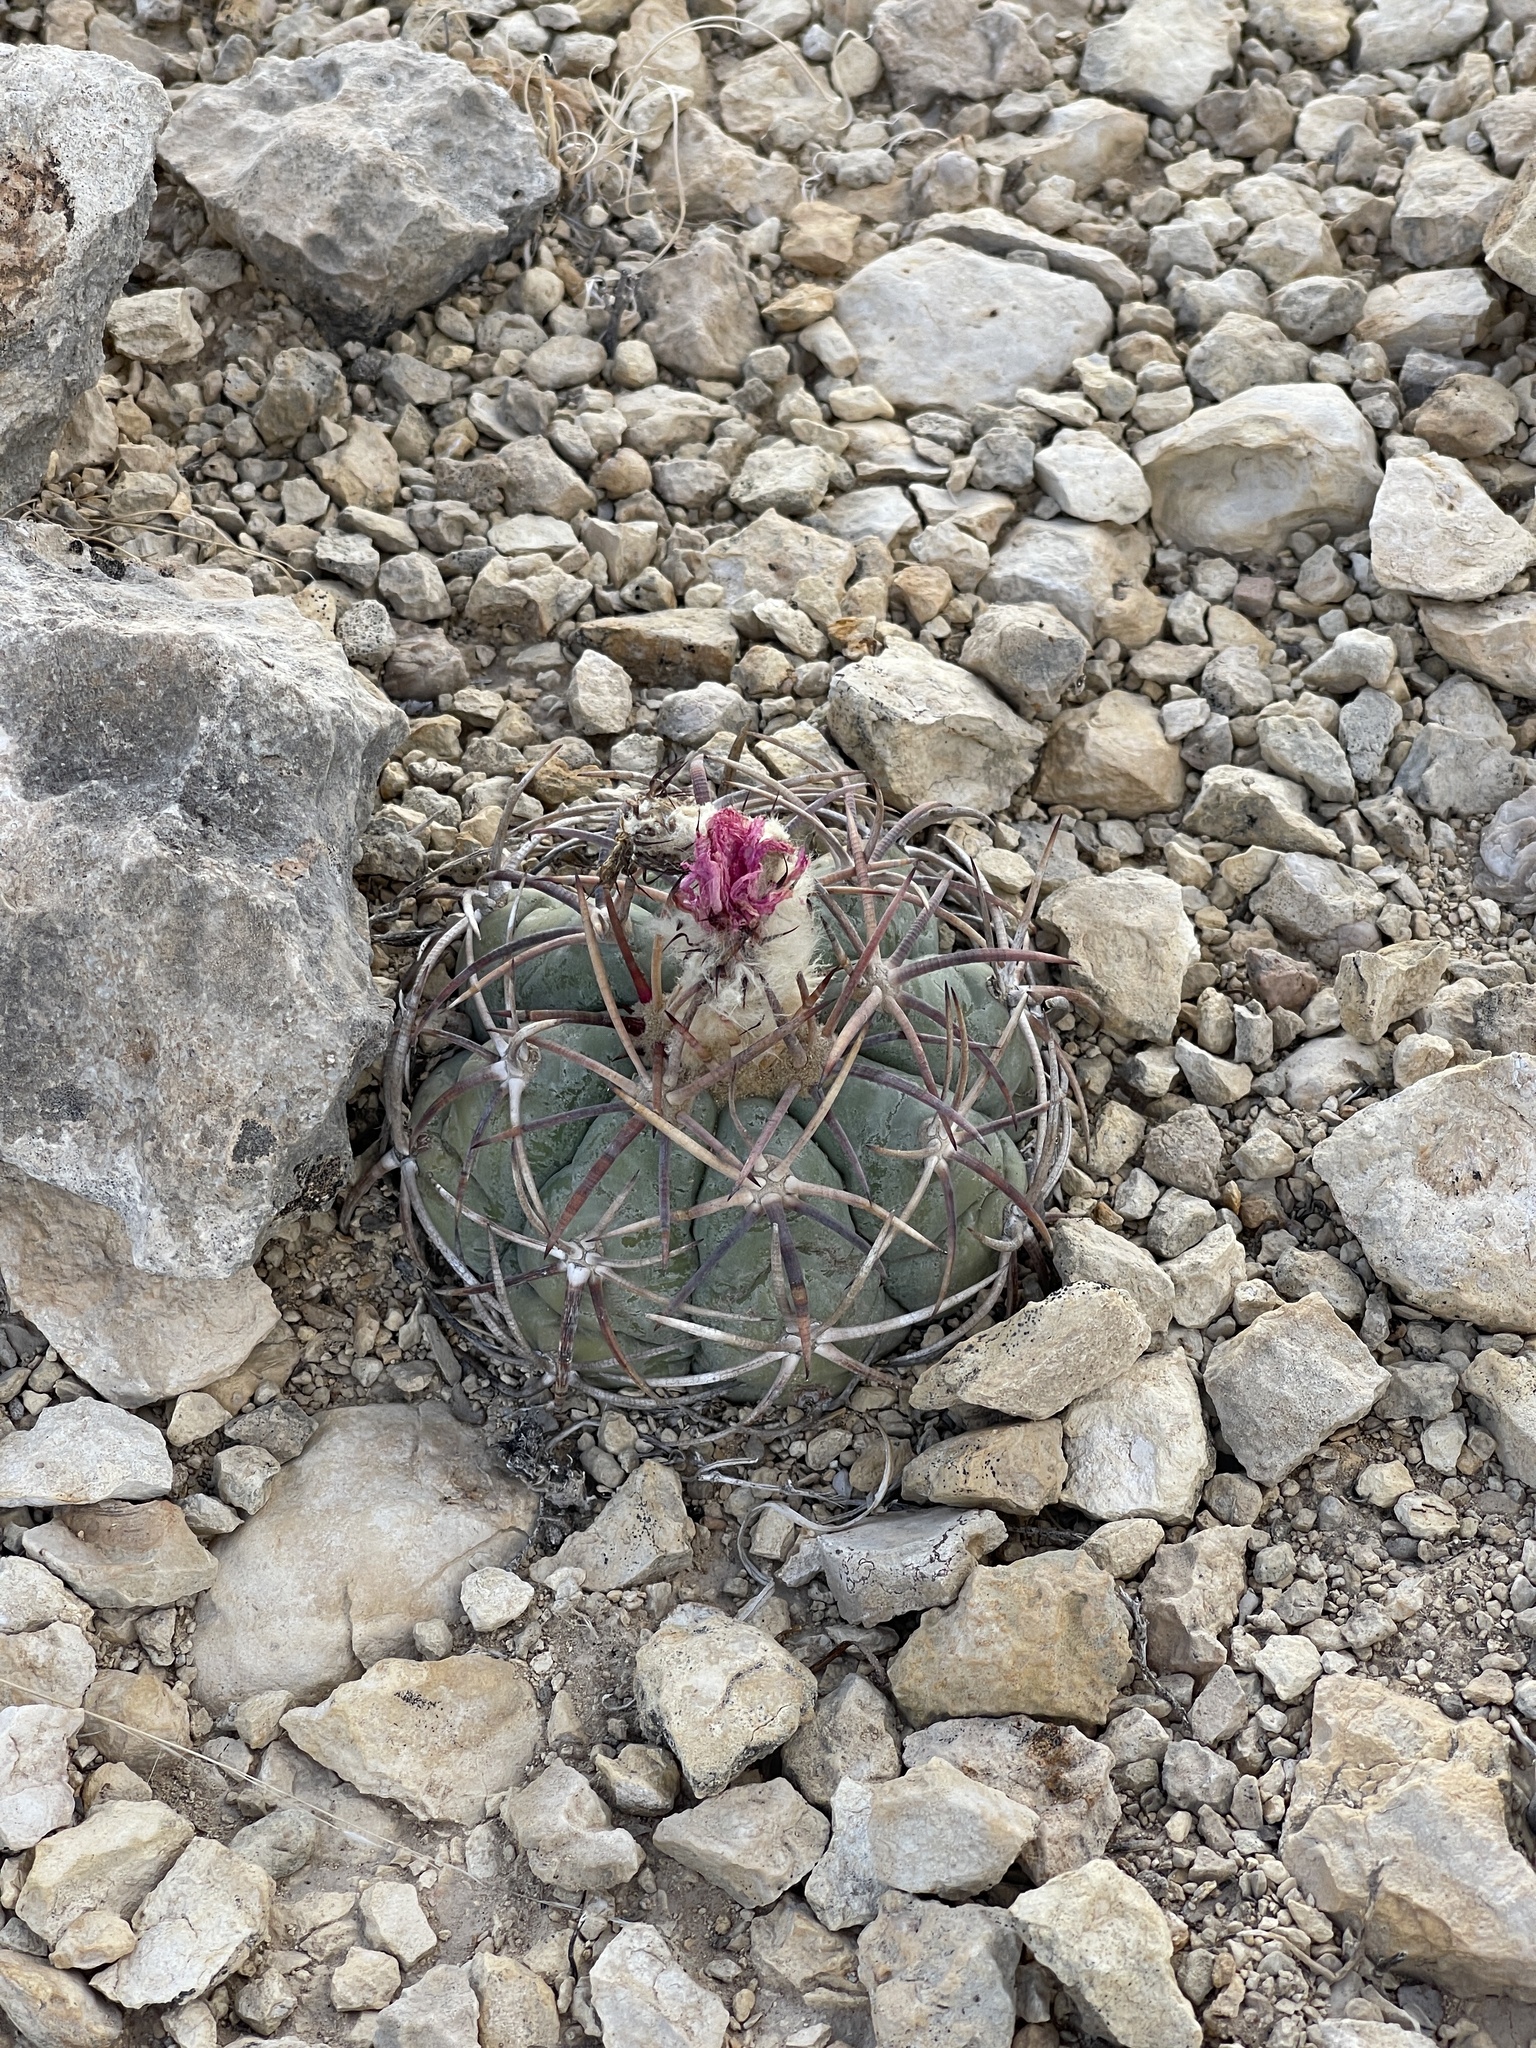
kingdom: Plantae
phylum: Tracheophyta
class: Magnoliopsida
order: Caryophyllales
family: Cactaceae
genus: Echinocactus
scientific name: Echinocactus horizonthalonius
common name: Devilshead
